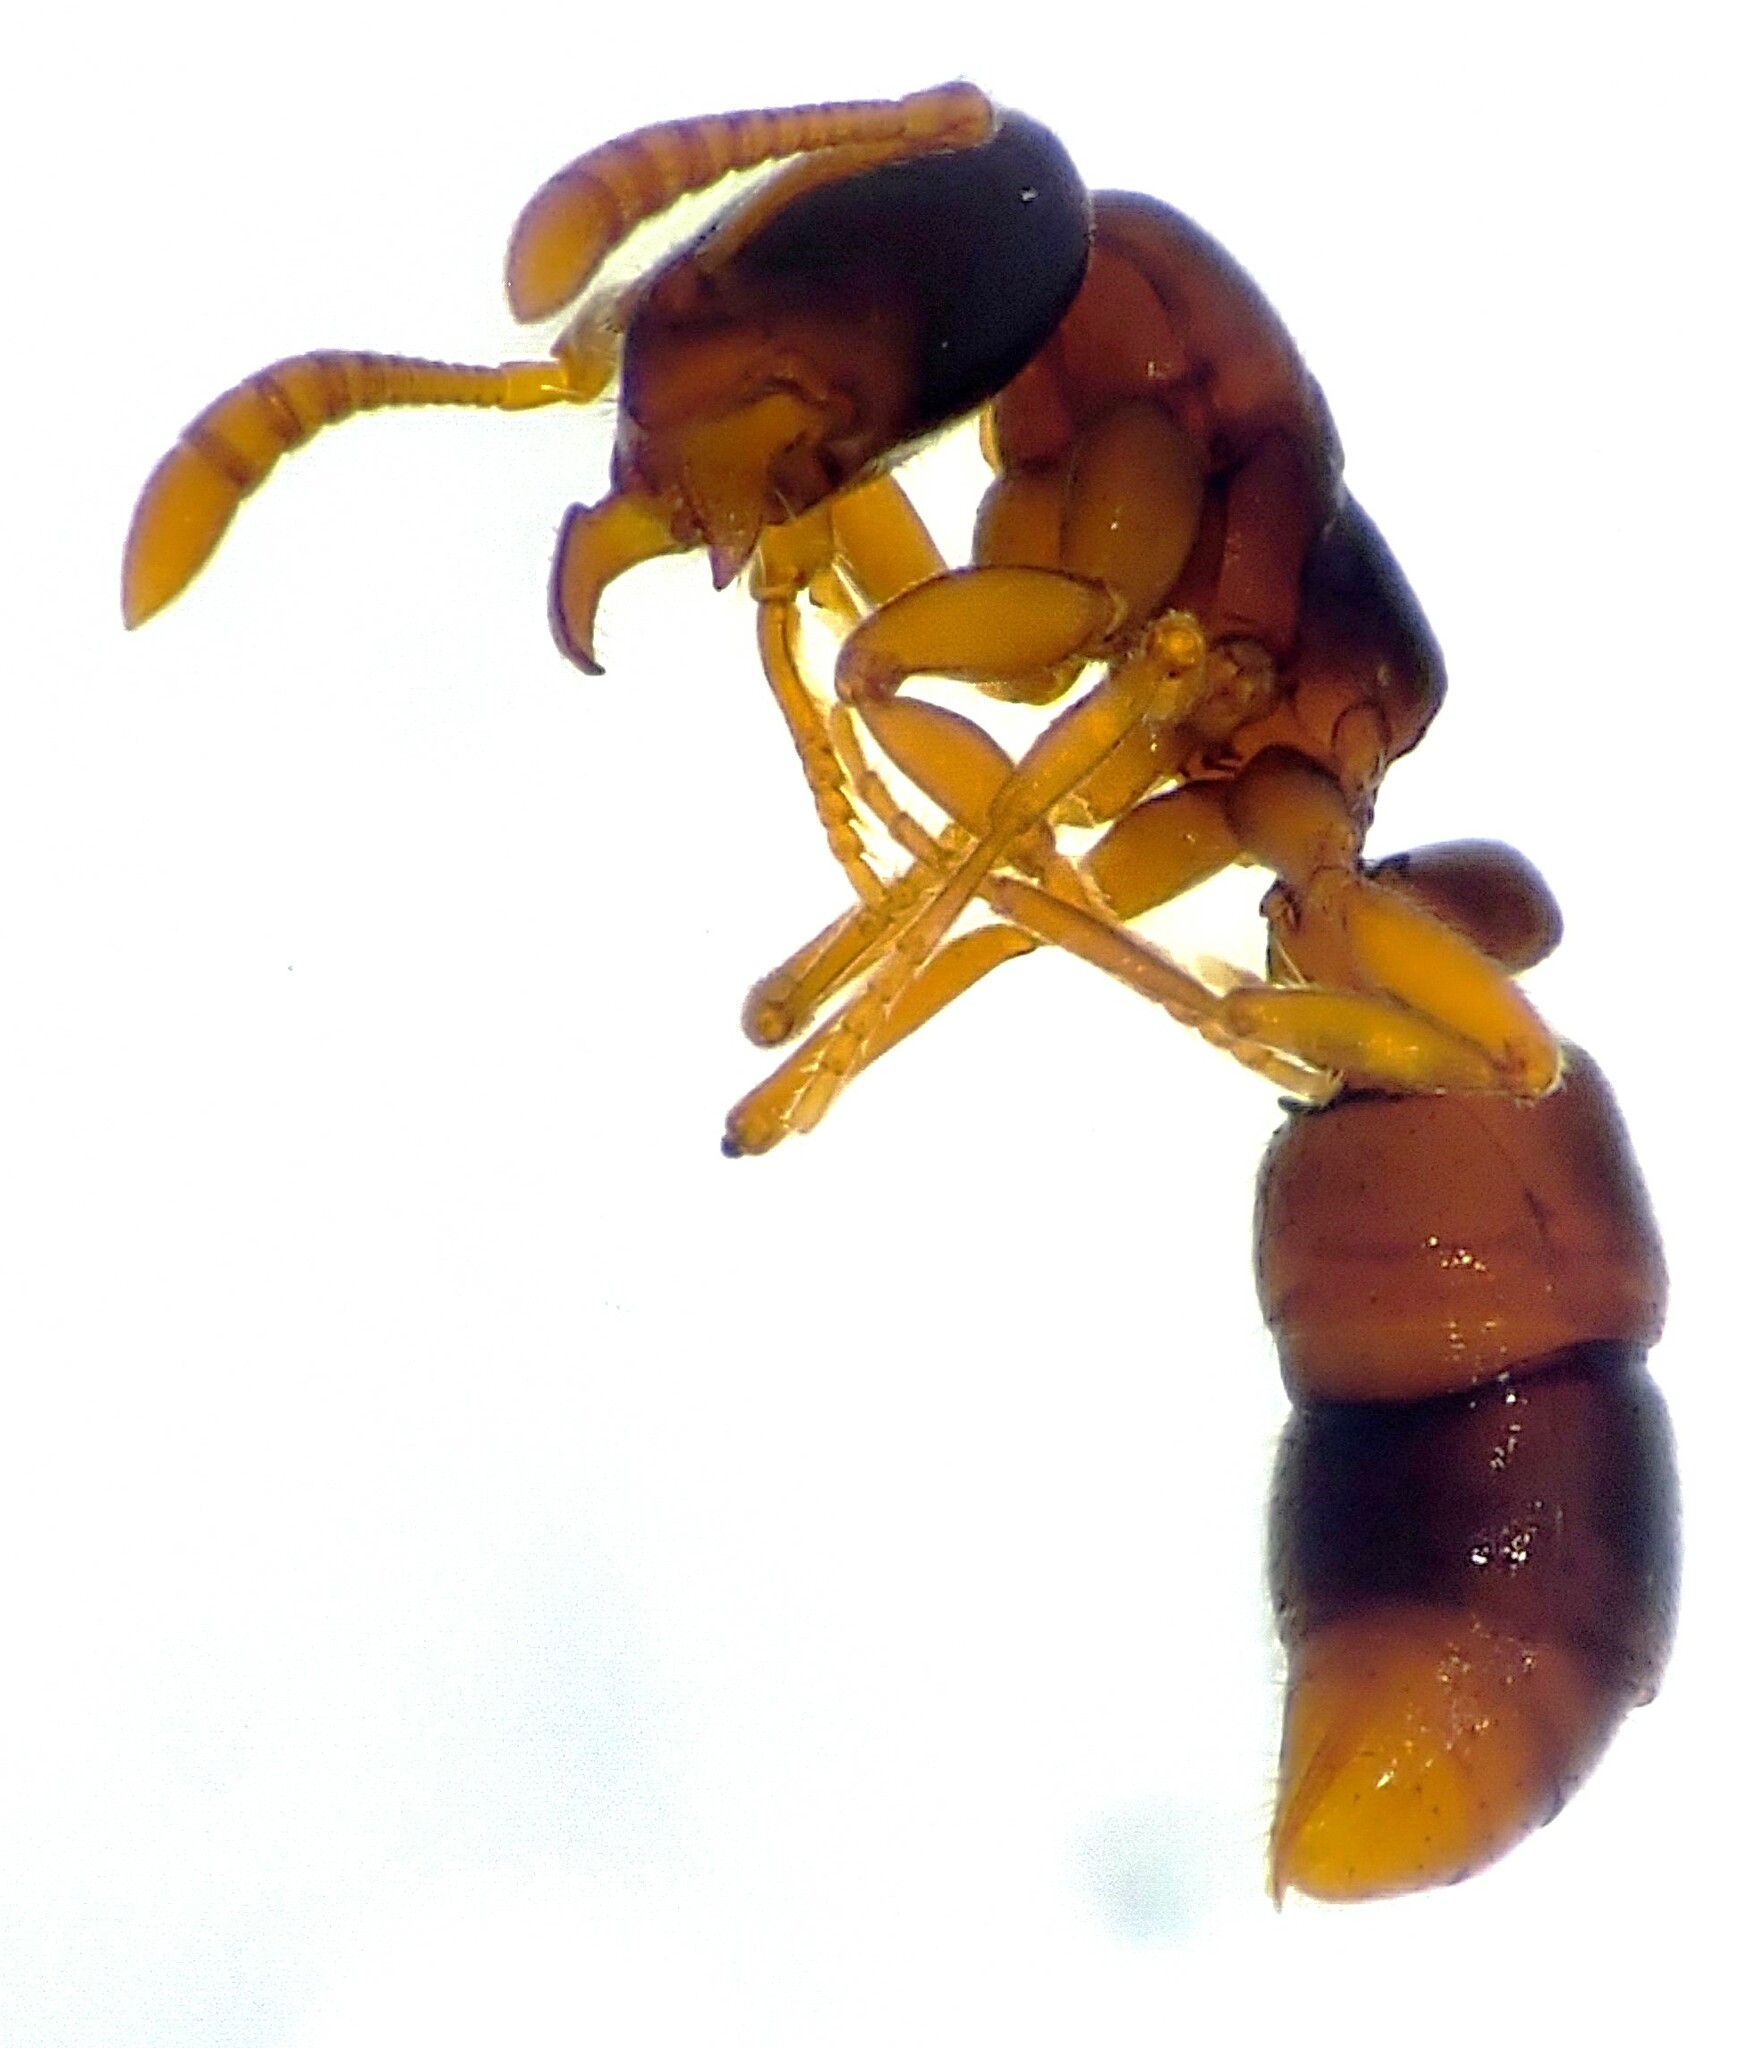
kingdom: Animalia
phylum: Arthropoda
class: Insecta
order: Hymenoptera
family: Formicidae
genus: Ponera
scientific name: Ponera pennsylvanica
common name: Pennsylvania ponera
